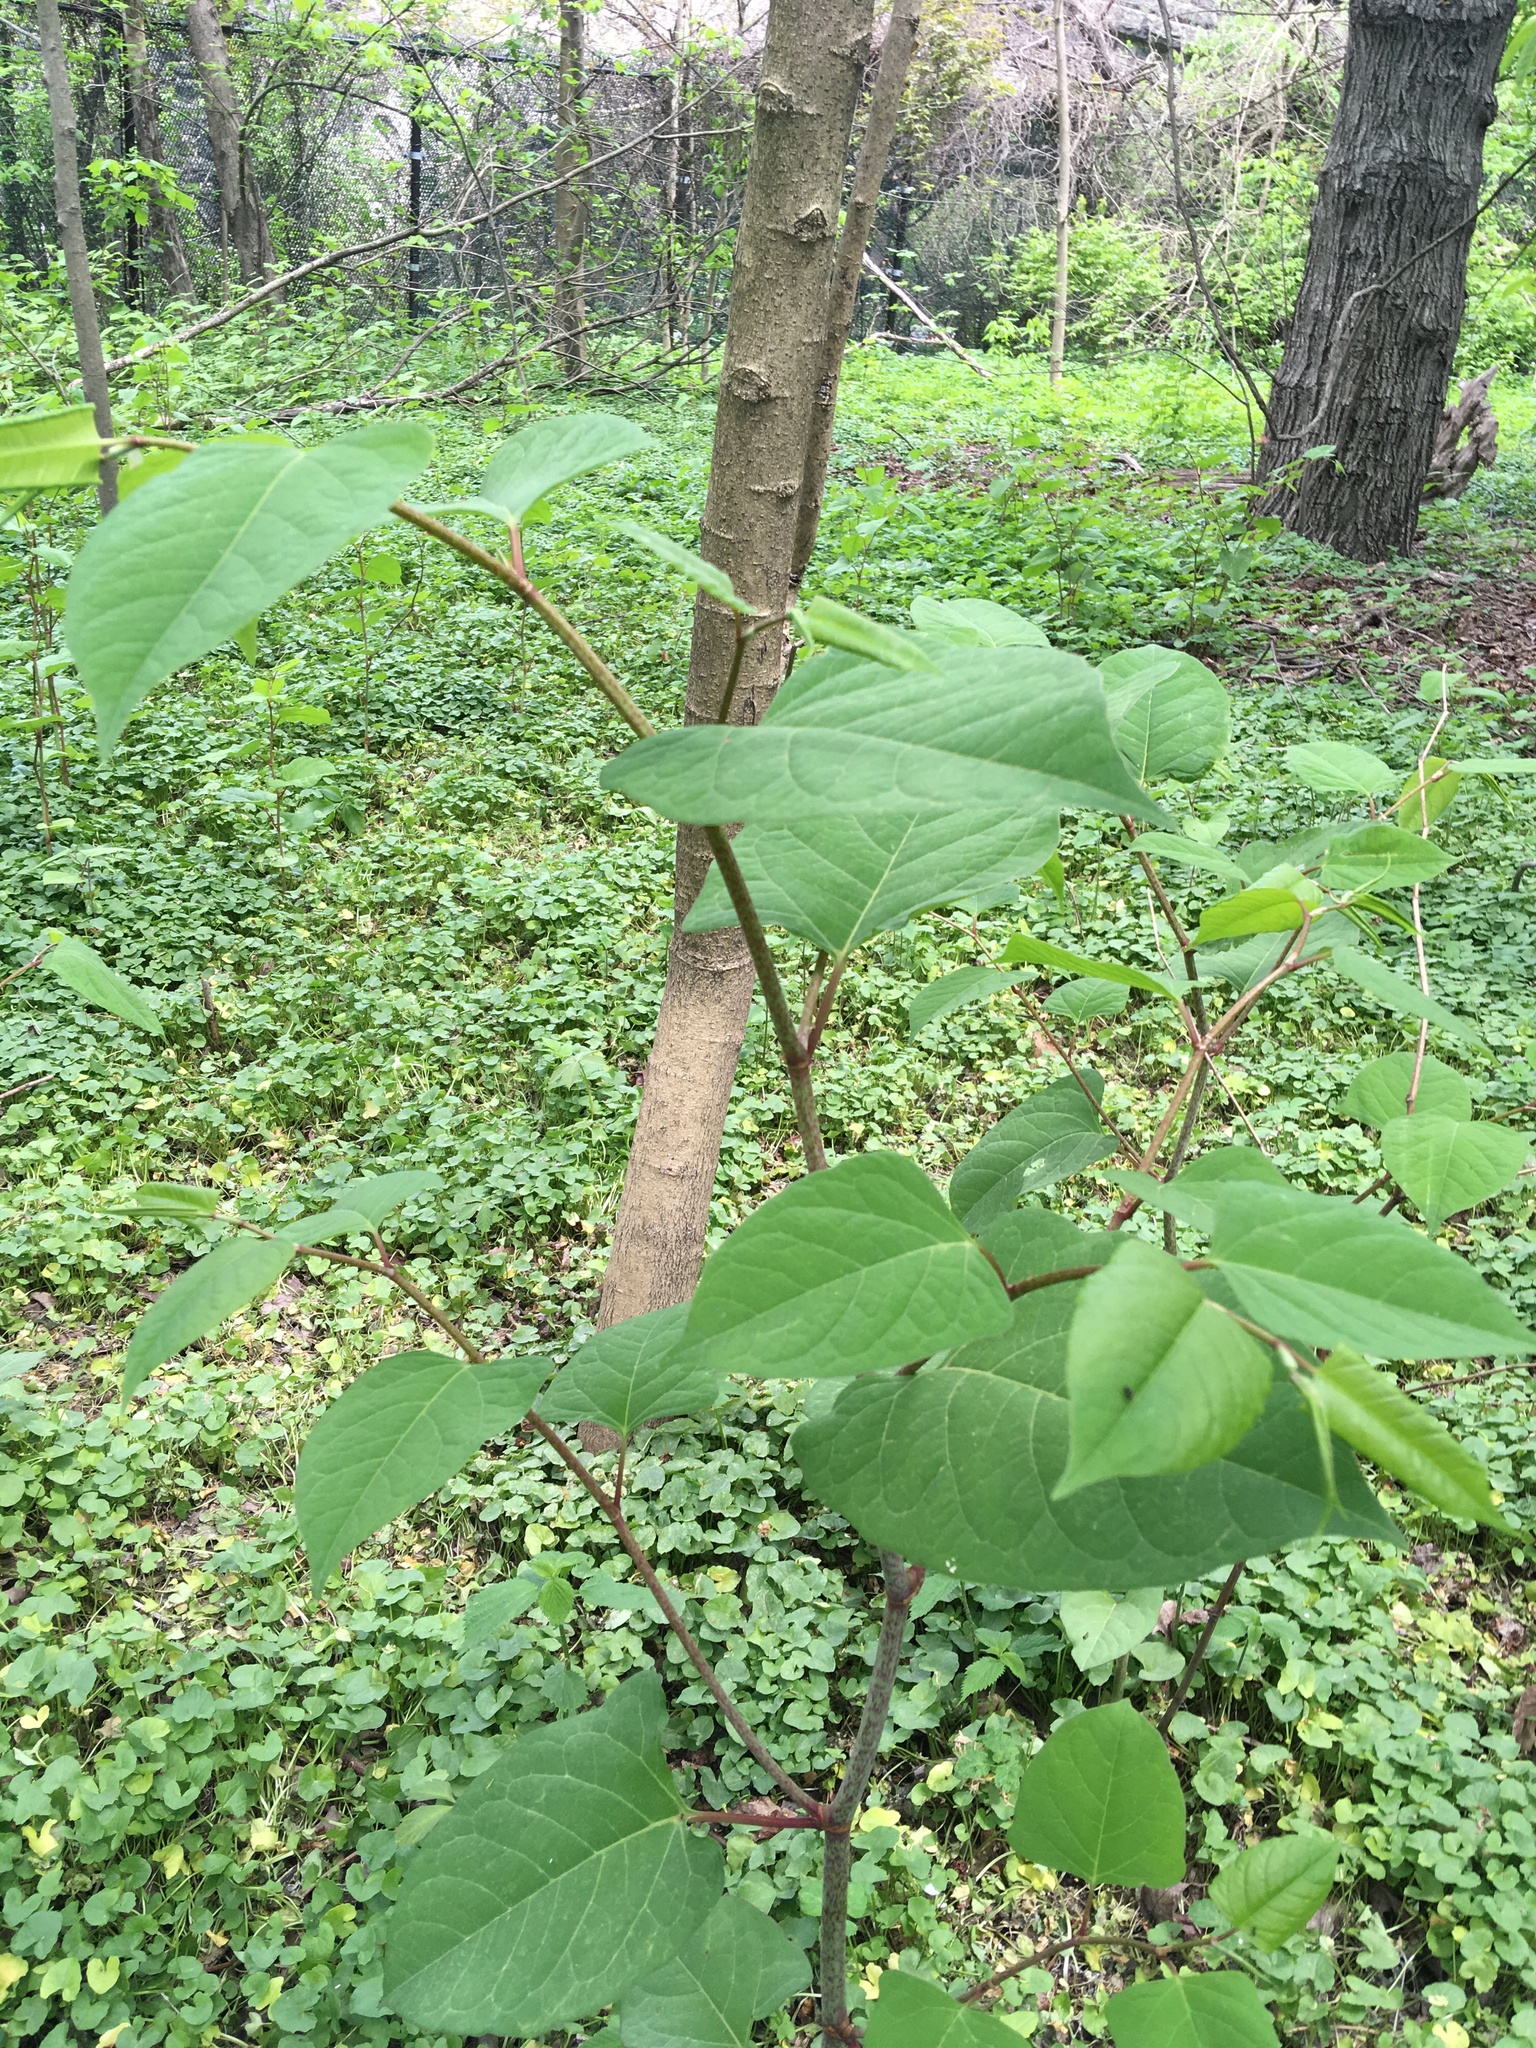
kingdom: Plantae
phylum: Tracheophyta
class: Magnoliopsida
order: Caryophyllales
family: Polygonaceae
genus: Reynoutria
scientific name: Reynoutria japonica
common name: Japanese knotweed
